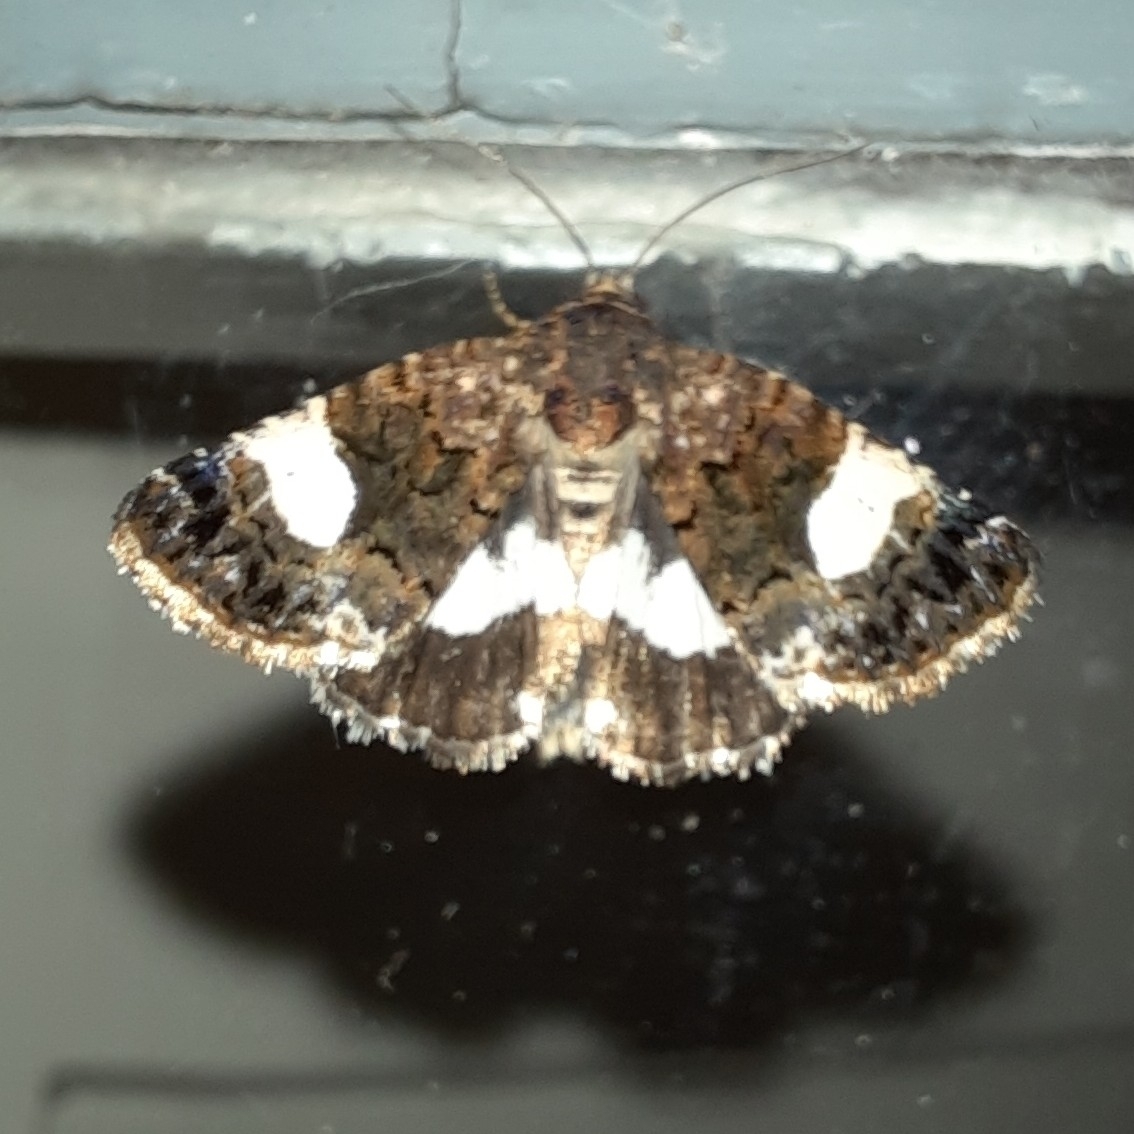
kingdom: Animalia
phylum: Arthropoda
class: Insecta
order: Lepidoptera
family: Erebidae
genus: Tyta
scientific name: Tyta luctuosa
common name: Four-spotted
